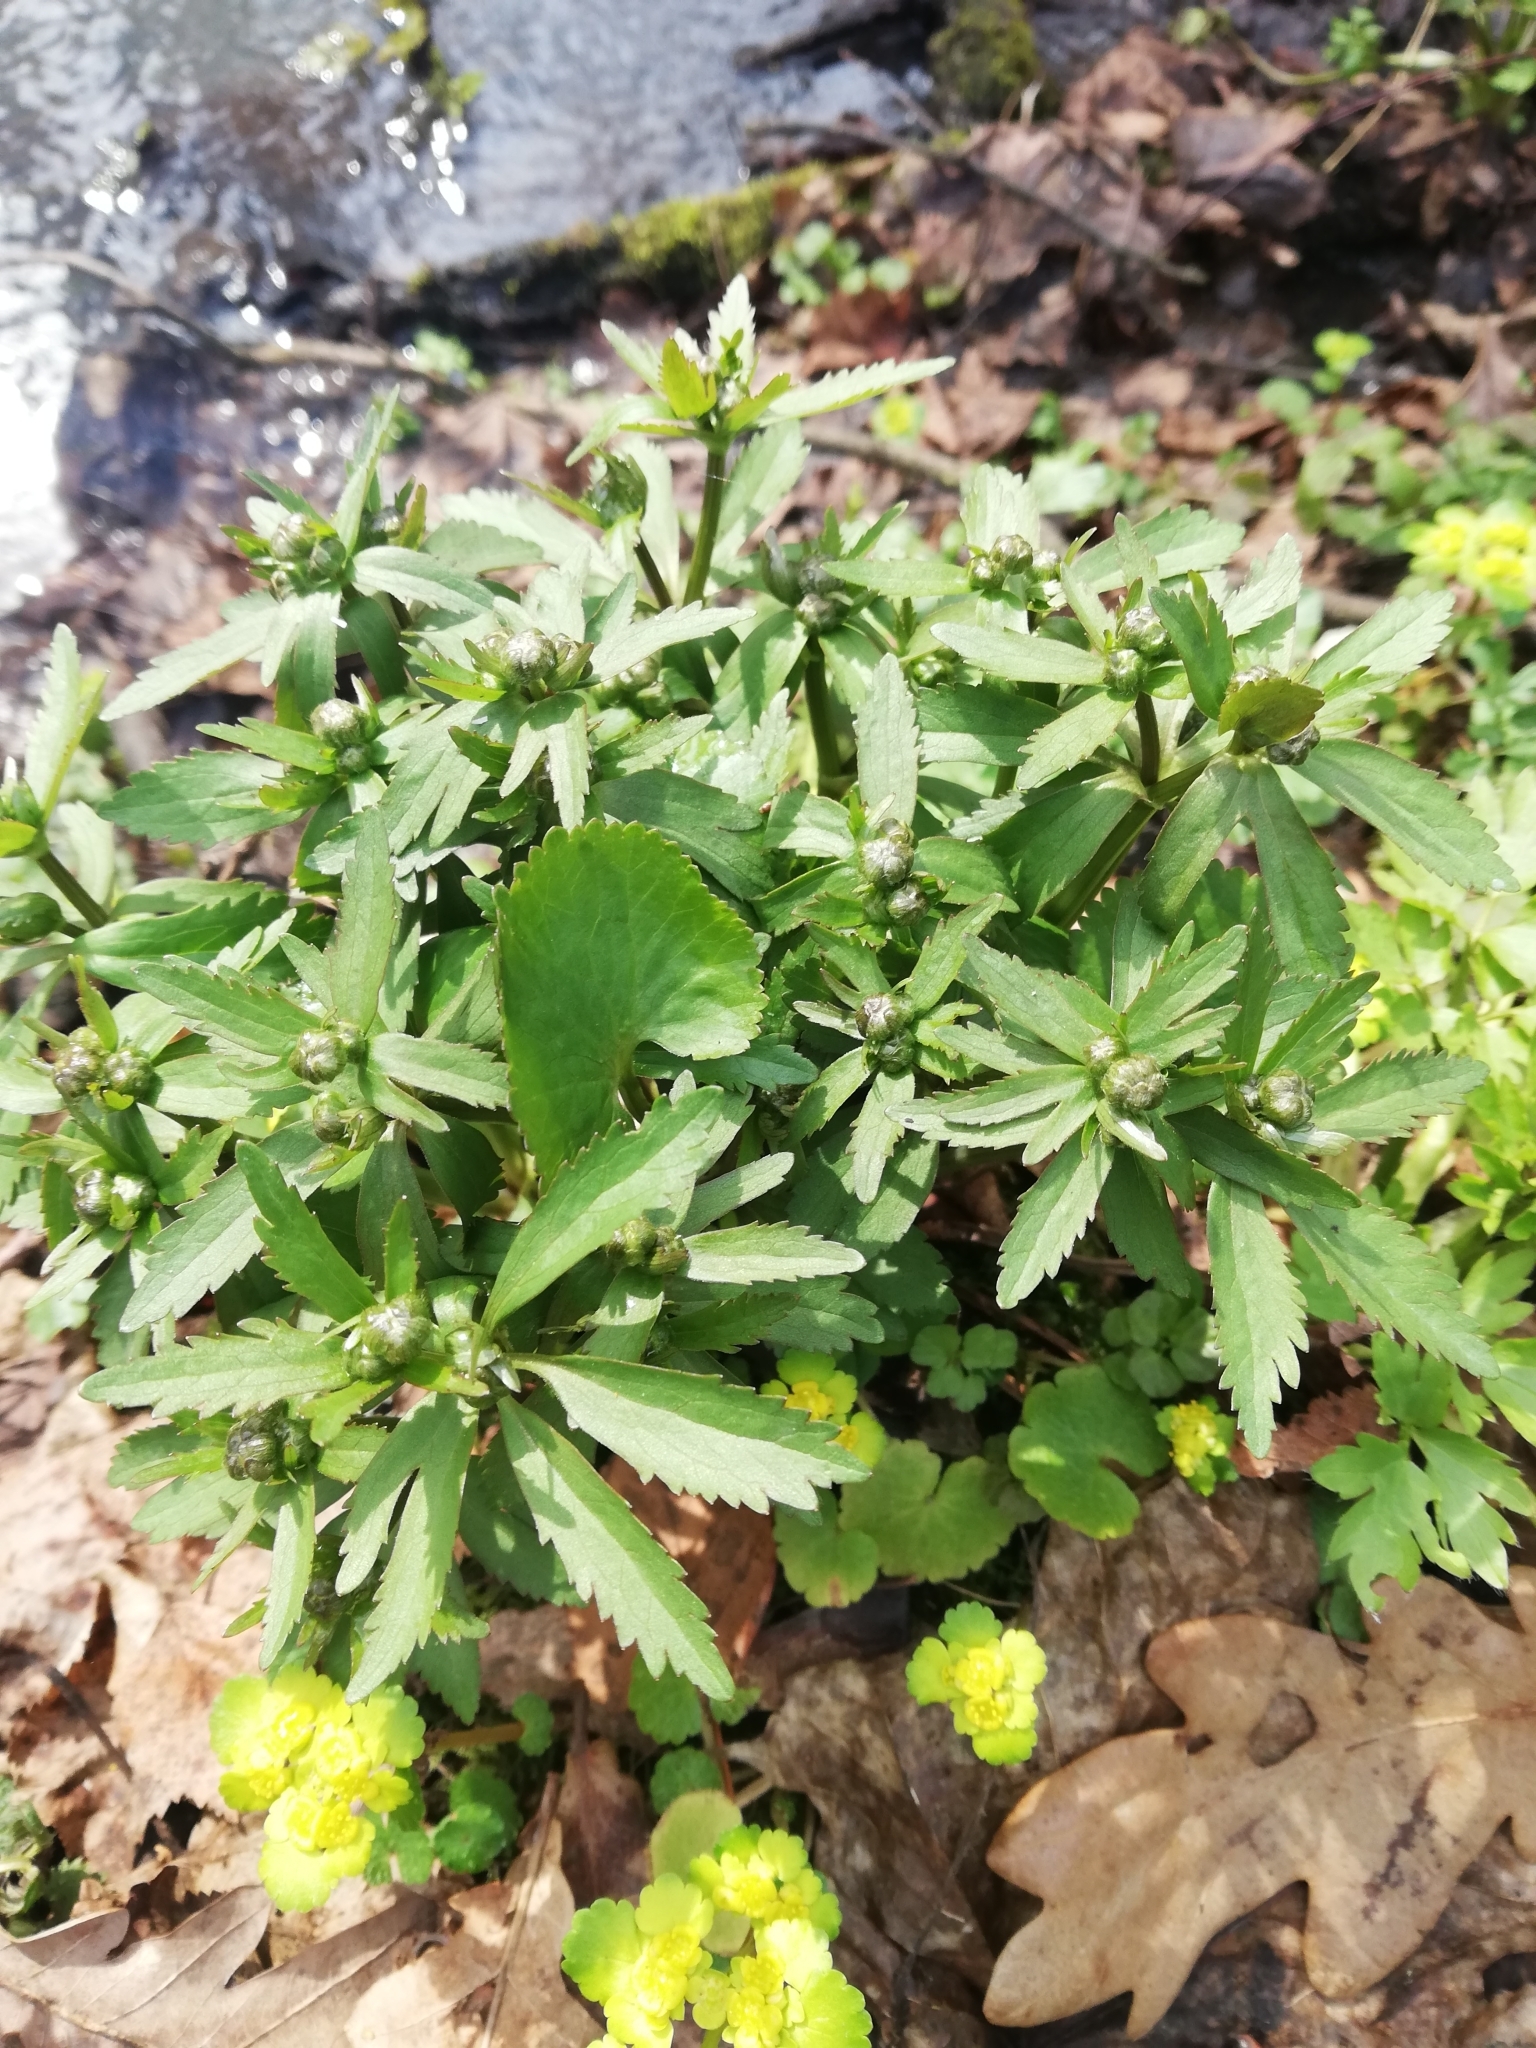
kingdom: Plantae
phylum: Tracheophyta
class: Magnoliopsida
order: Ranunculales
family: Ranunculaceae
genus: Ranunculus
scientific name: Ranunculus cassubicus
